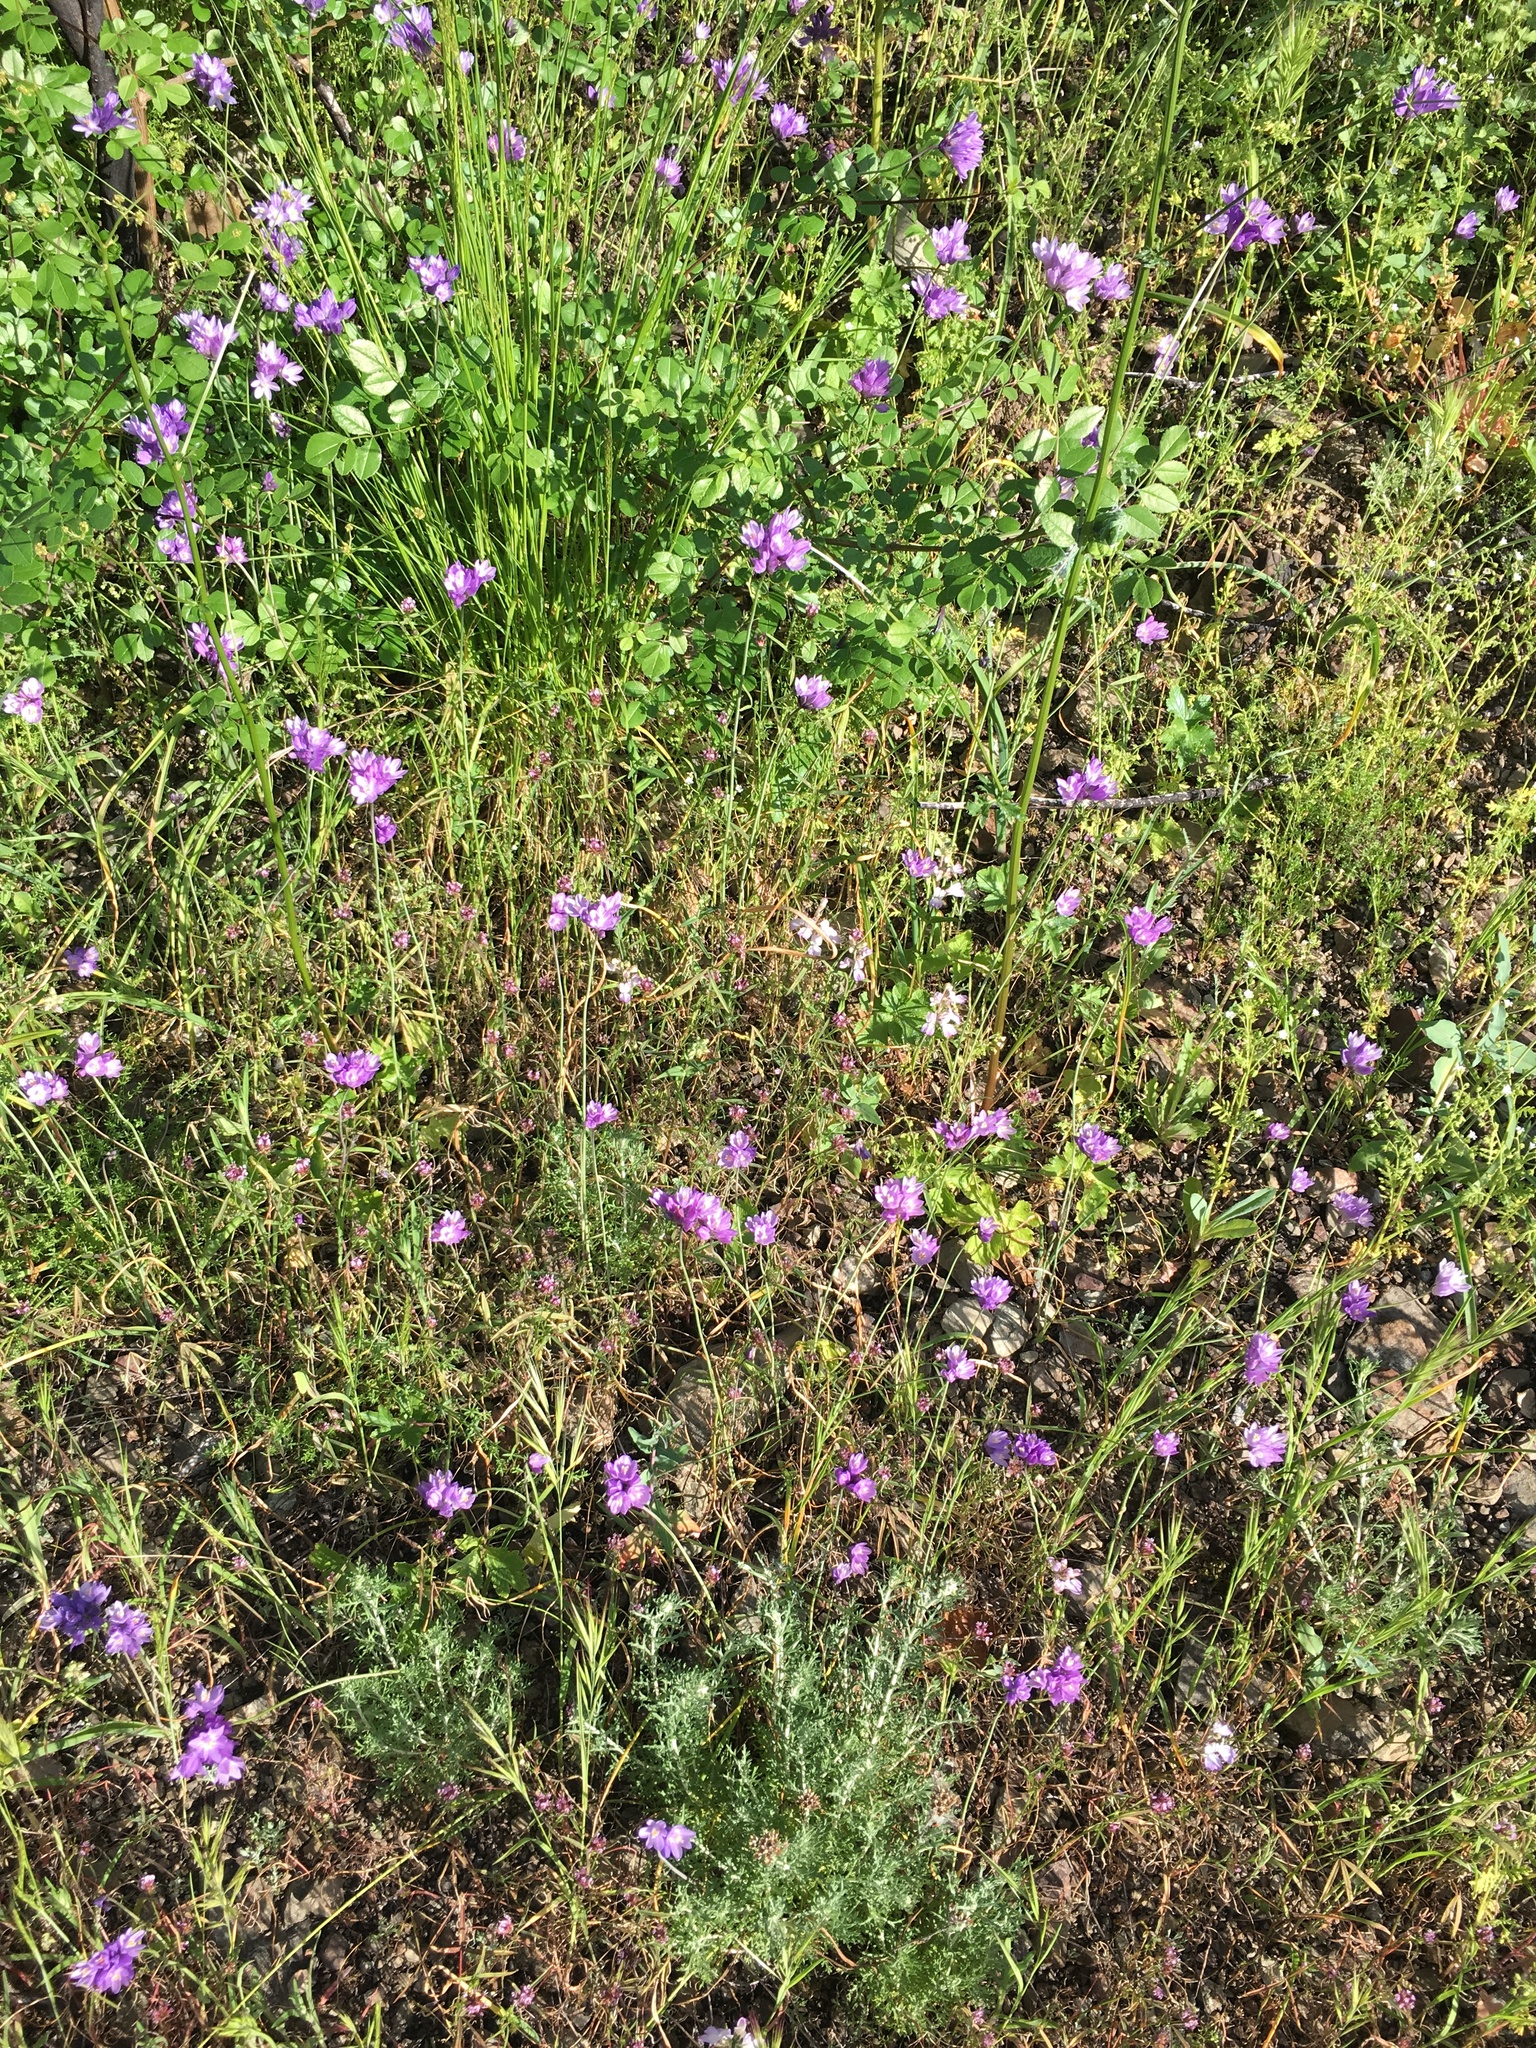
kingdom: Plantae
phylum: Tracheophyta
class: Liliopsida
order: Asparagales
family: Asparagaceae
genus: Dipterostemon
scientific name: Dipterostemon capitatus
